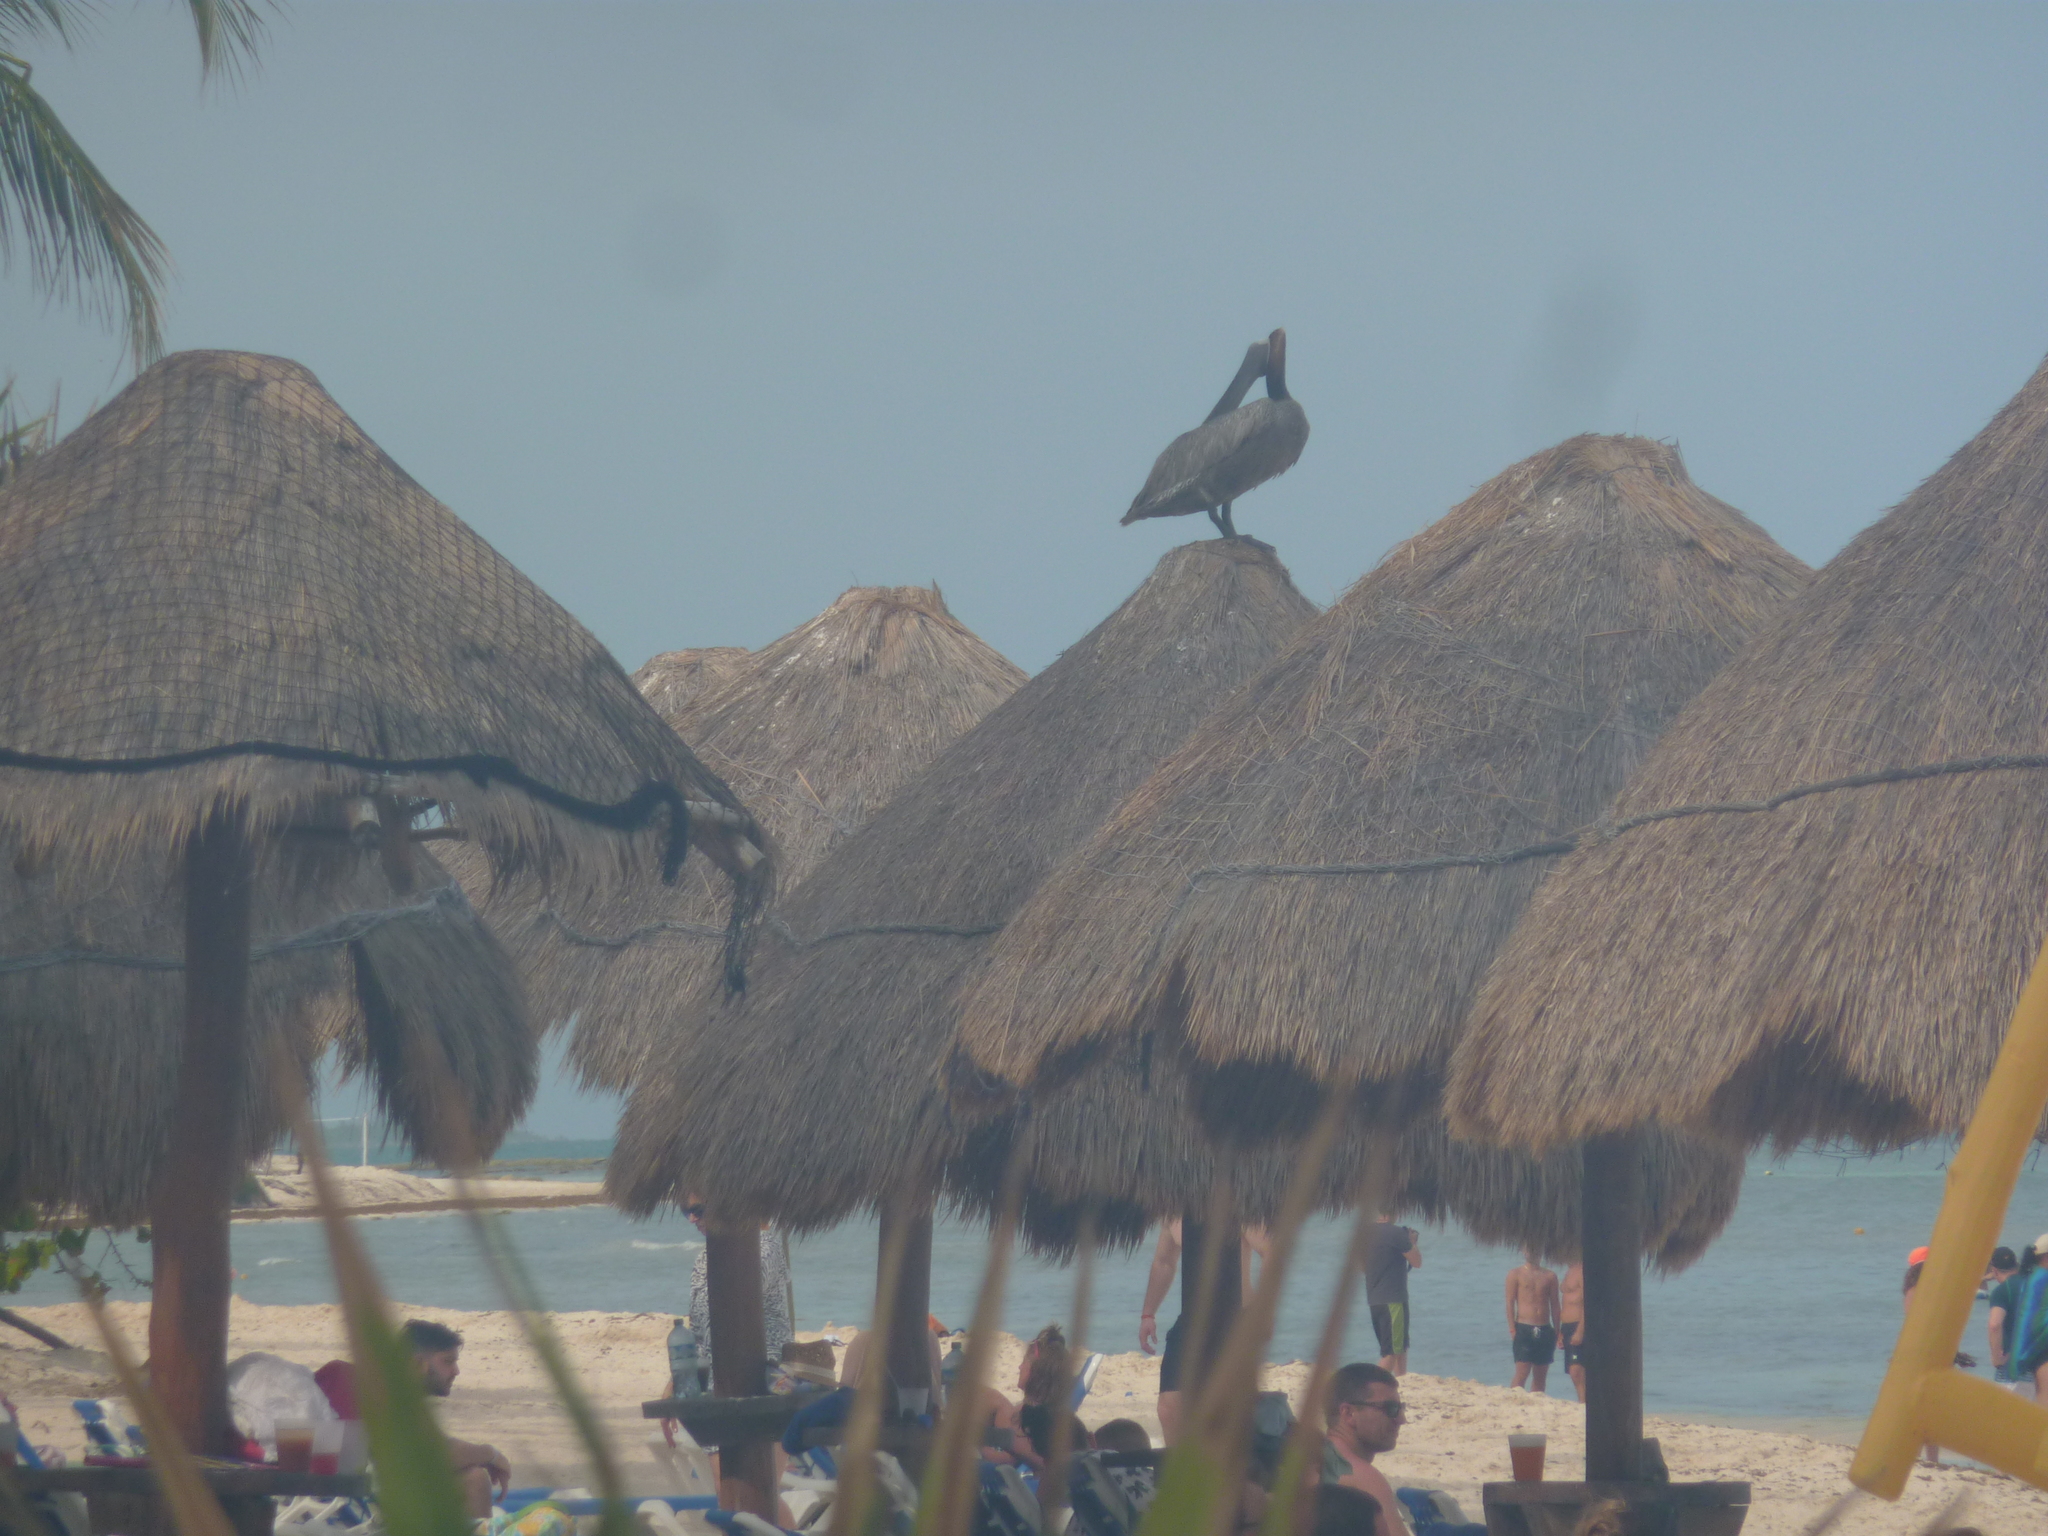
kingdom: Animalia
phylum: Chordata
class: Aves
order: Pelecaniformes
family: Pelecanidae
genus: Pelecanus
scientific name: Pelecanus occidentalis
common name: Brown pelican
